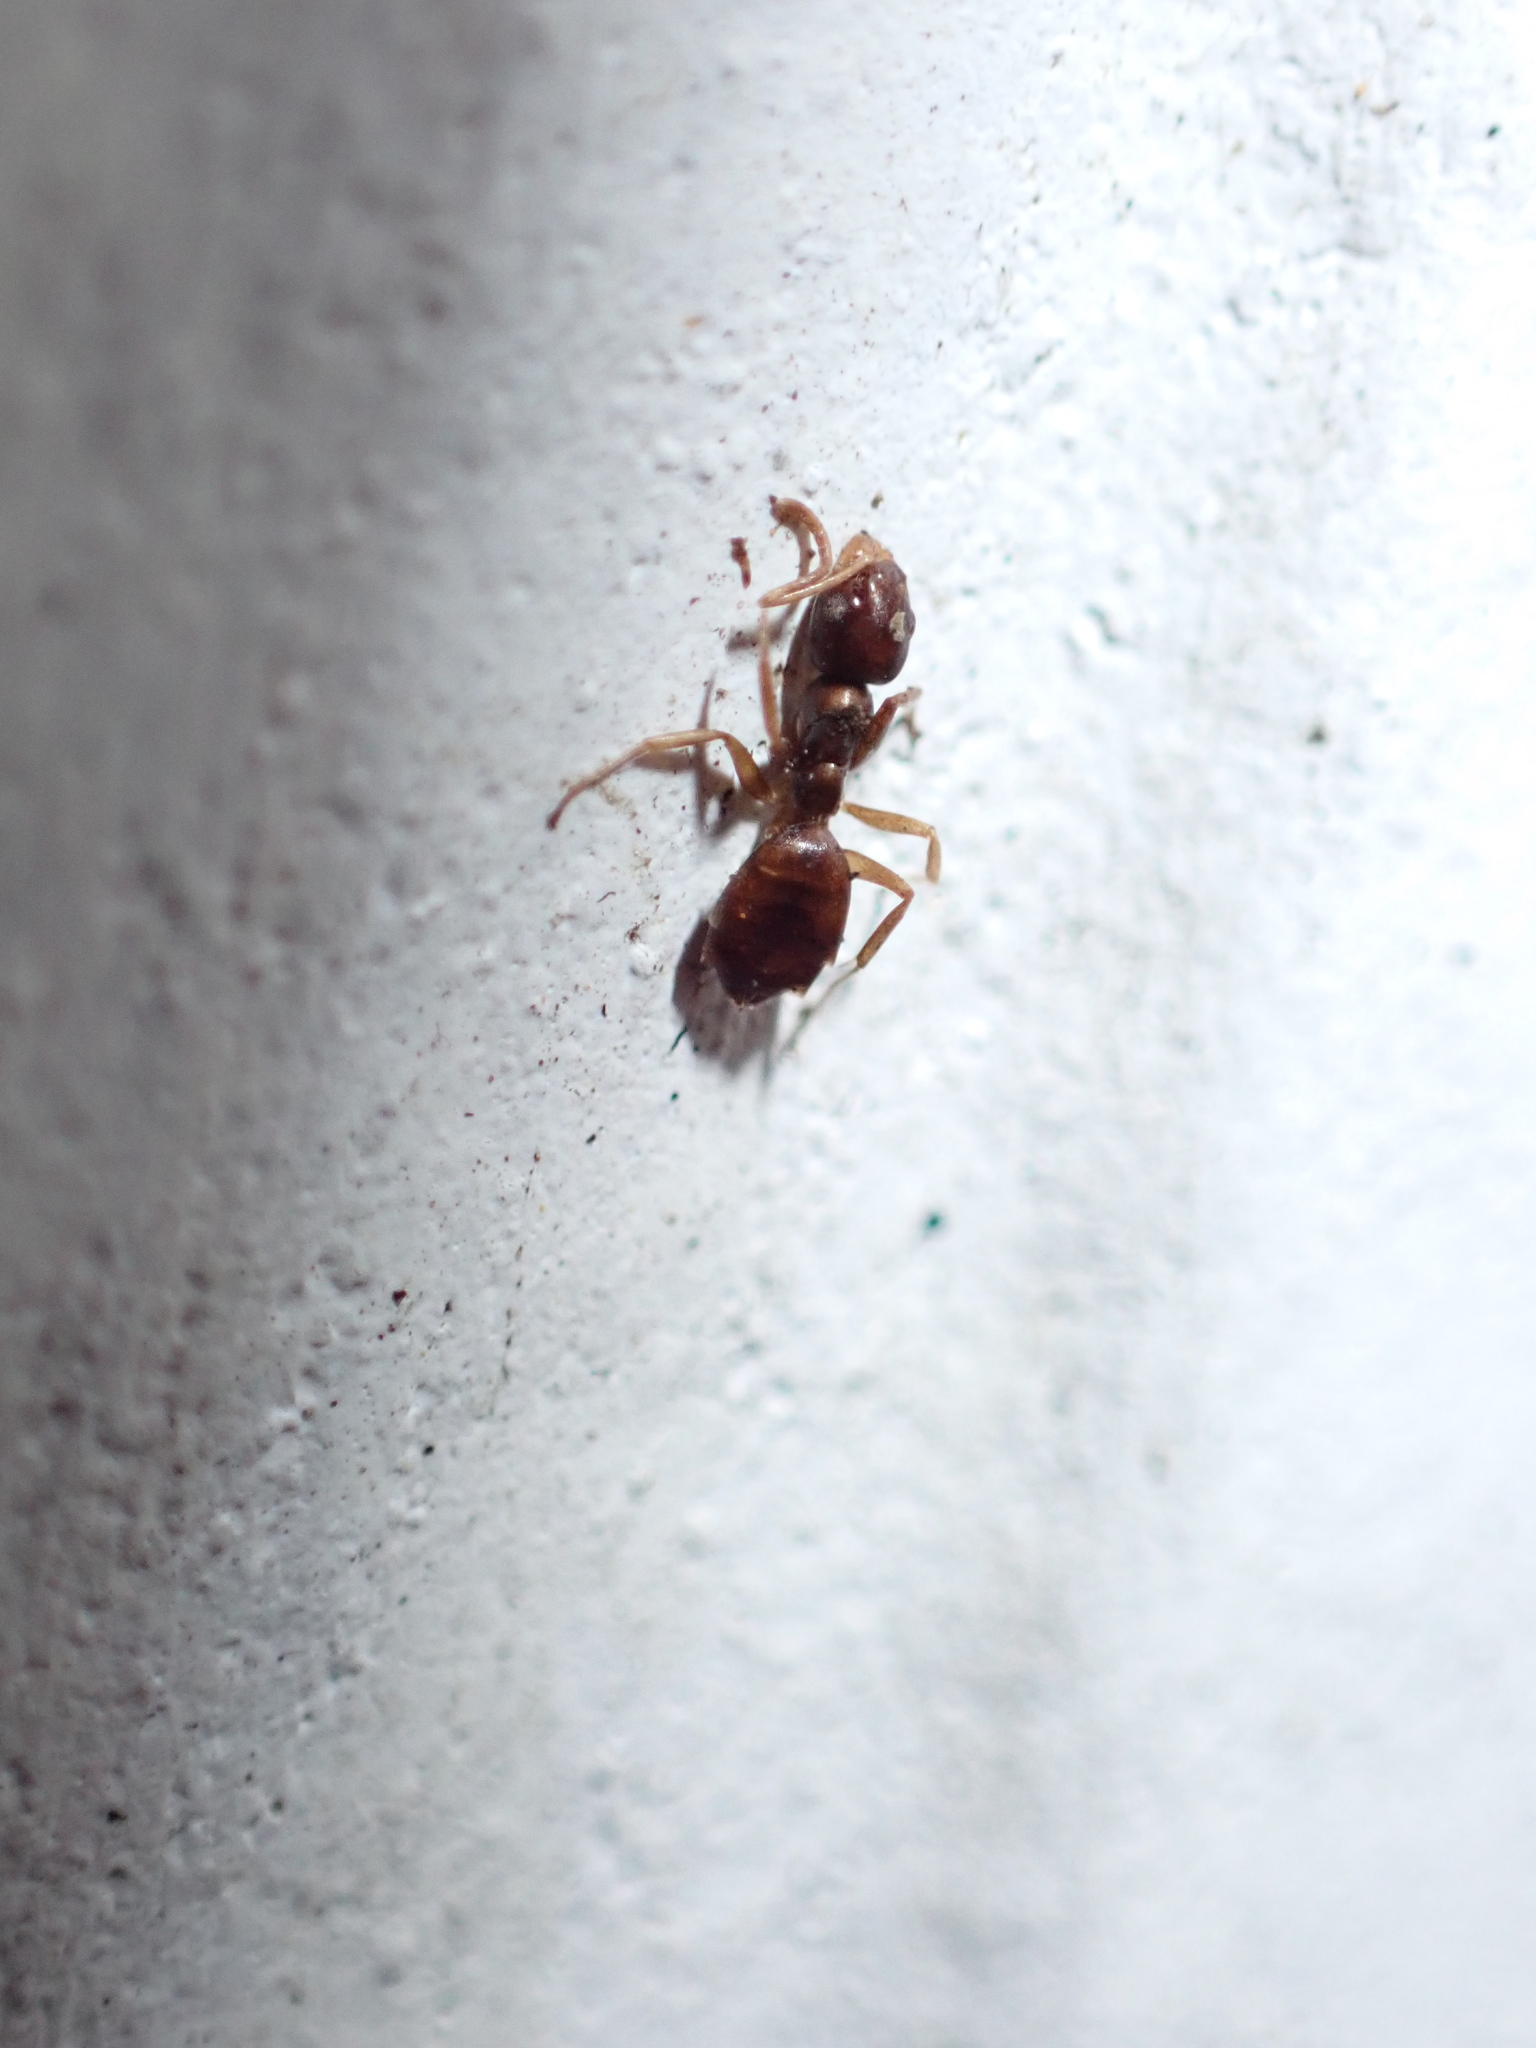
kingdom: Animalia
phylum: Arthropoda
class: Insecta
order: Hymenoptera
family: Formicidae
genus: Tapinoma
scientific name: Tapinoma sessile
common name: Odorous house ant
